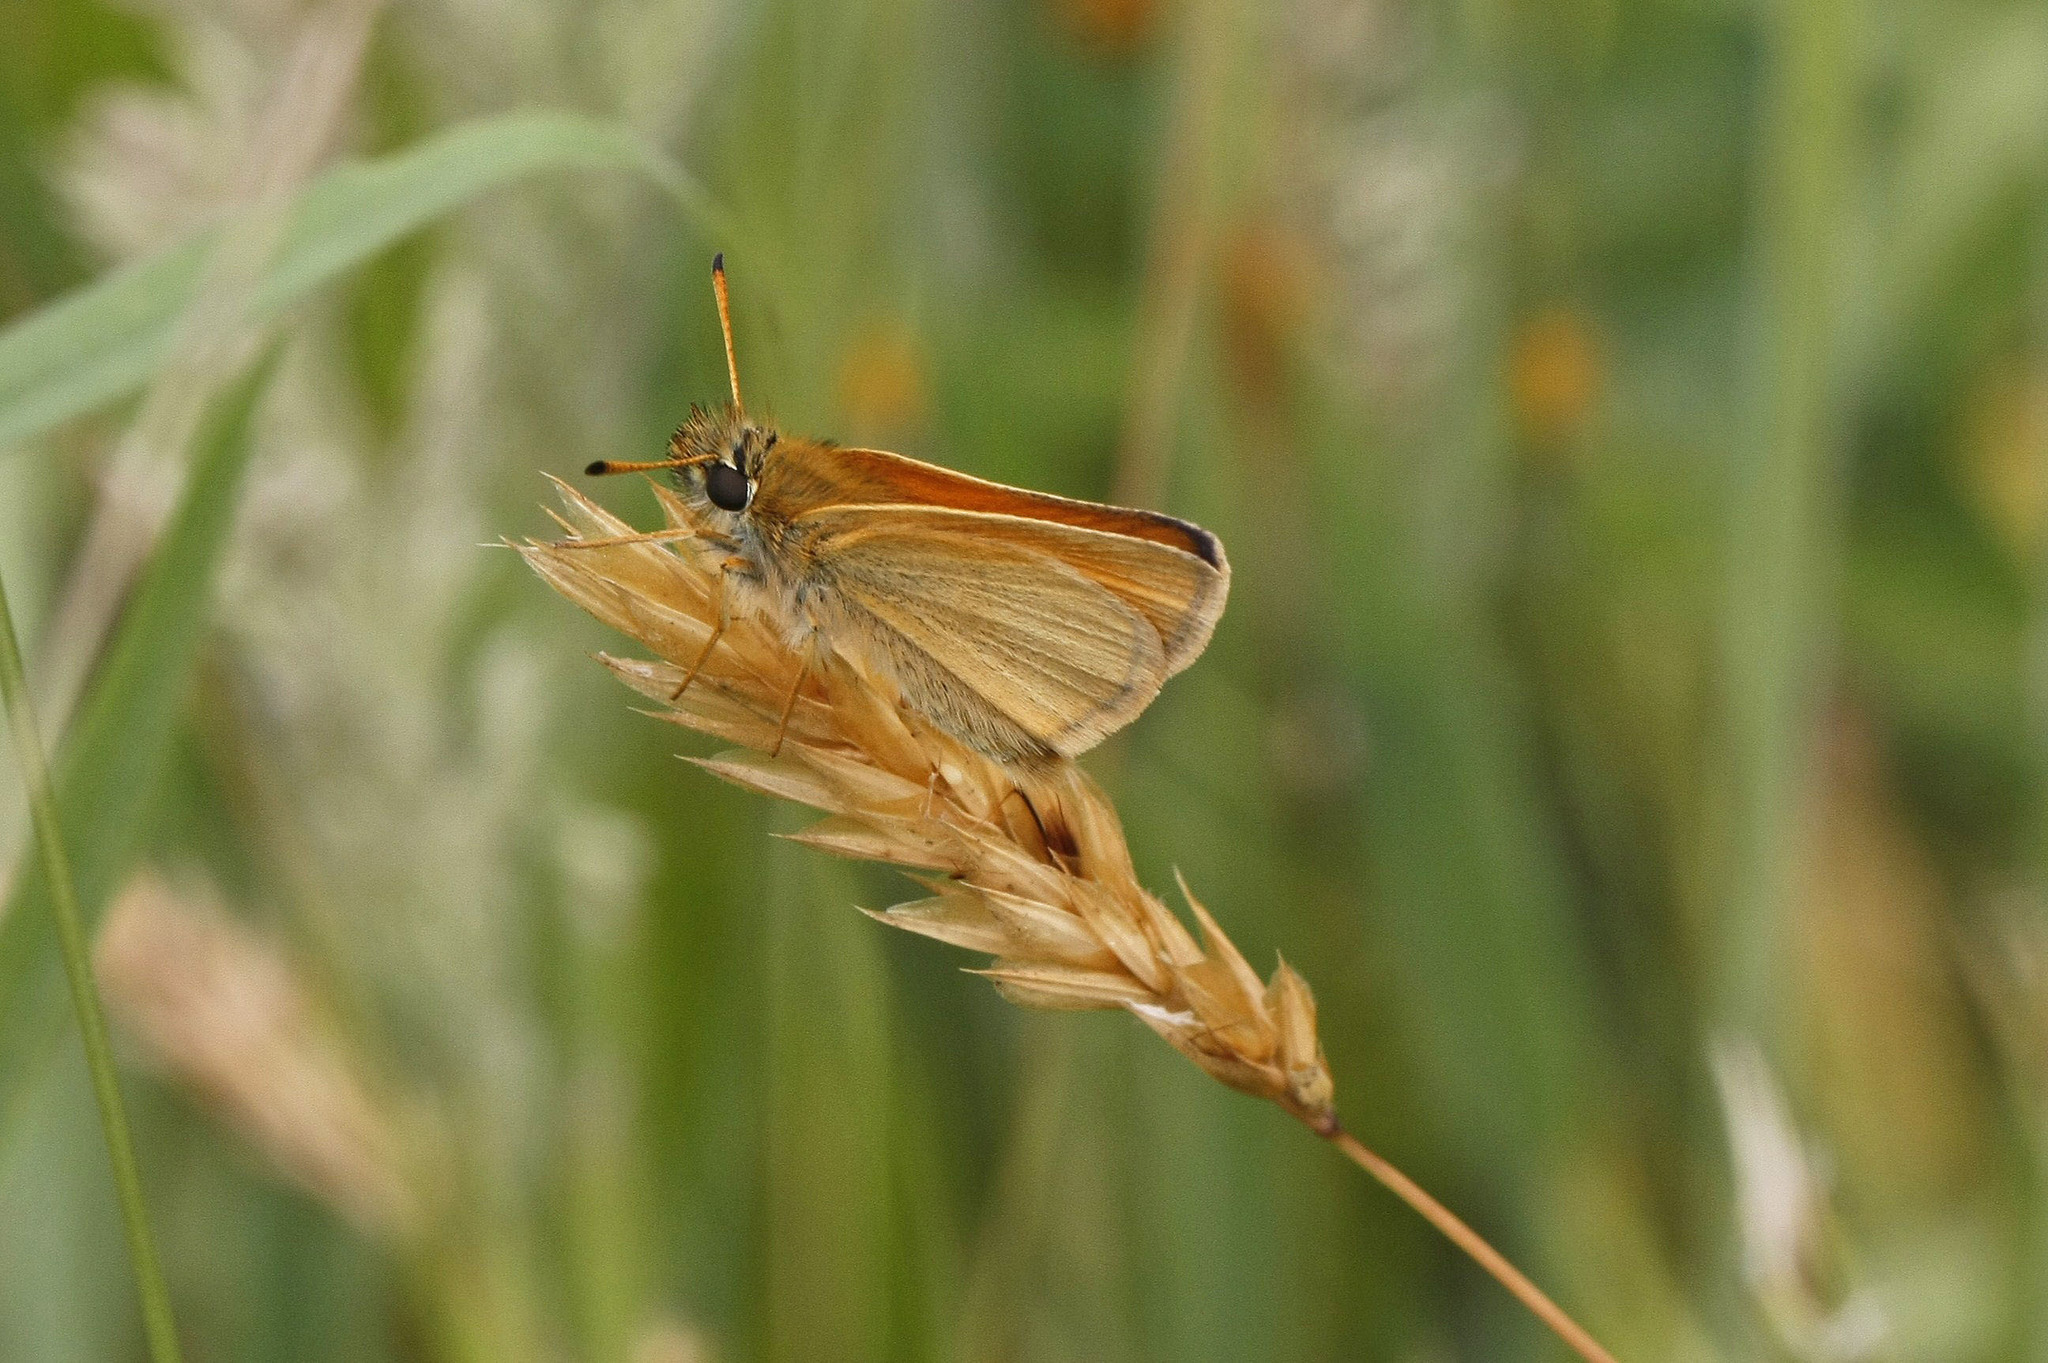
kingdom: Animalia
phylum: Arthropoda
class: Insecta
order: Lepidoptera
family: Hesperiidae
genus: Thymelicus
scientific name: Thymelicus lineola
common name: Essex skipper
